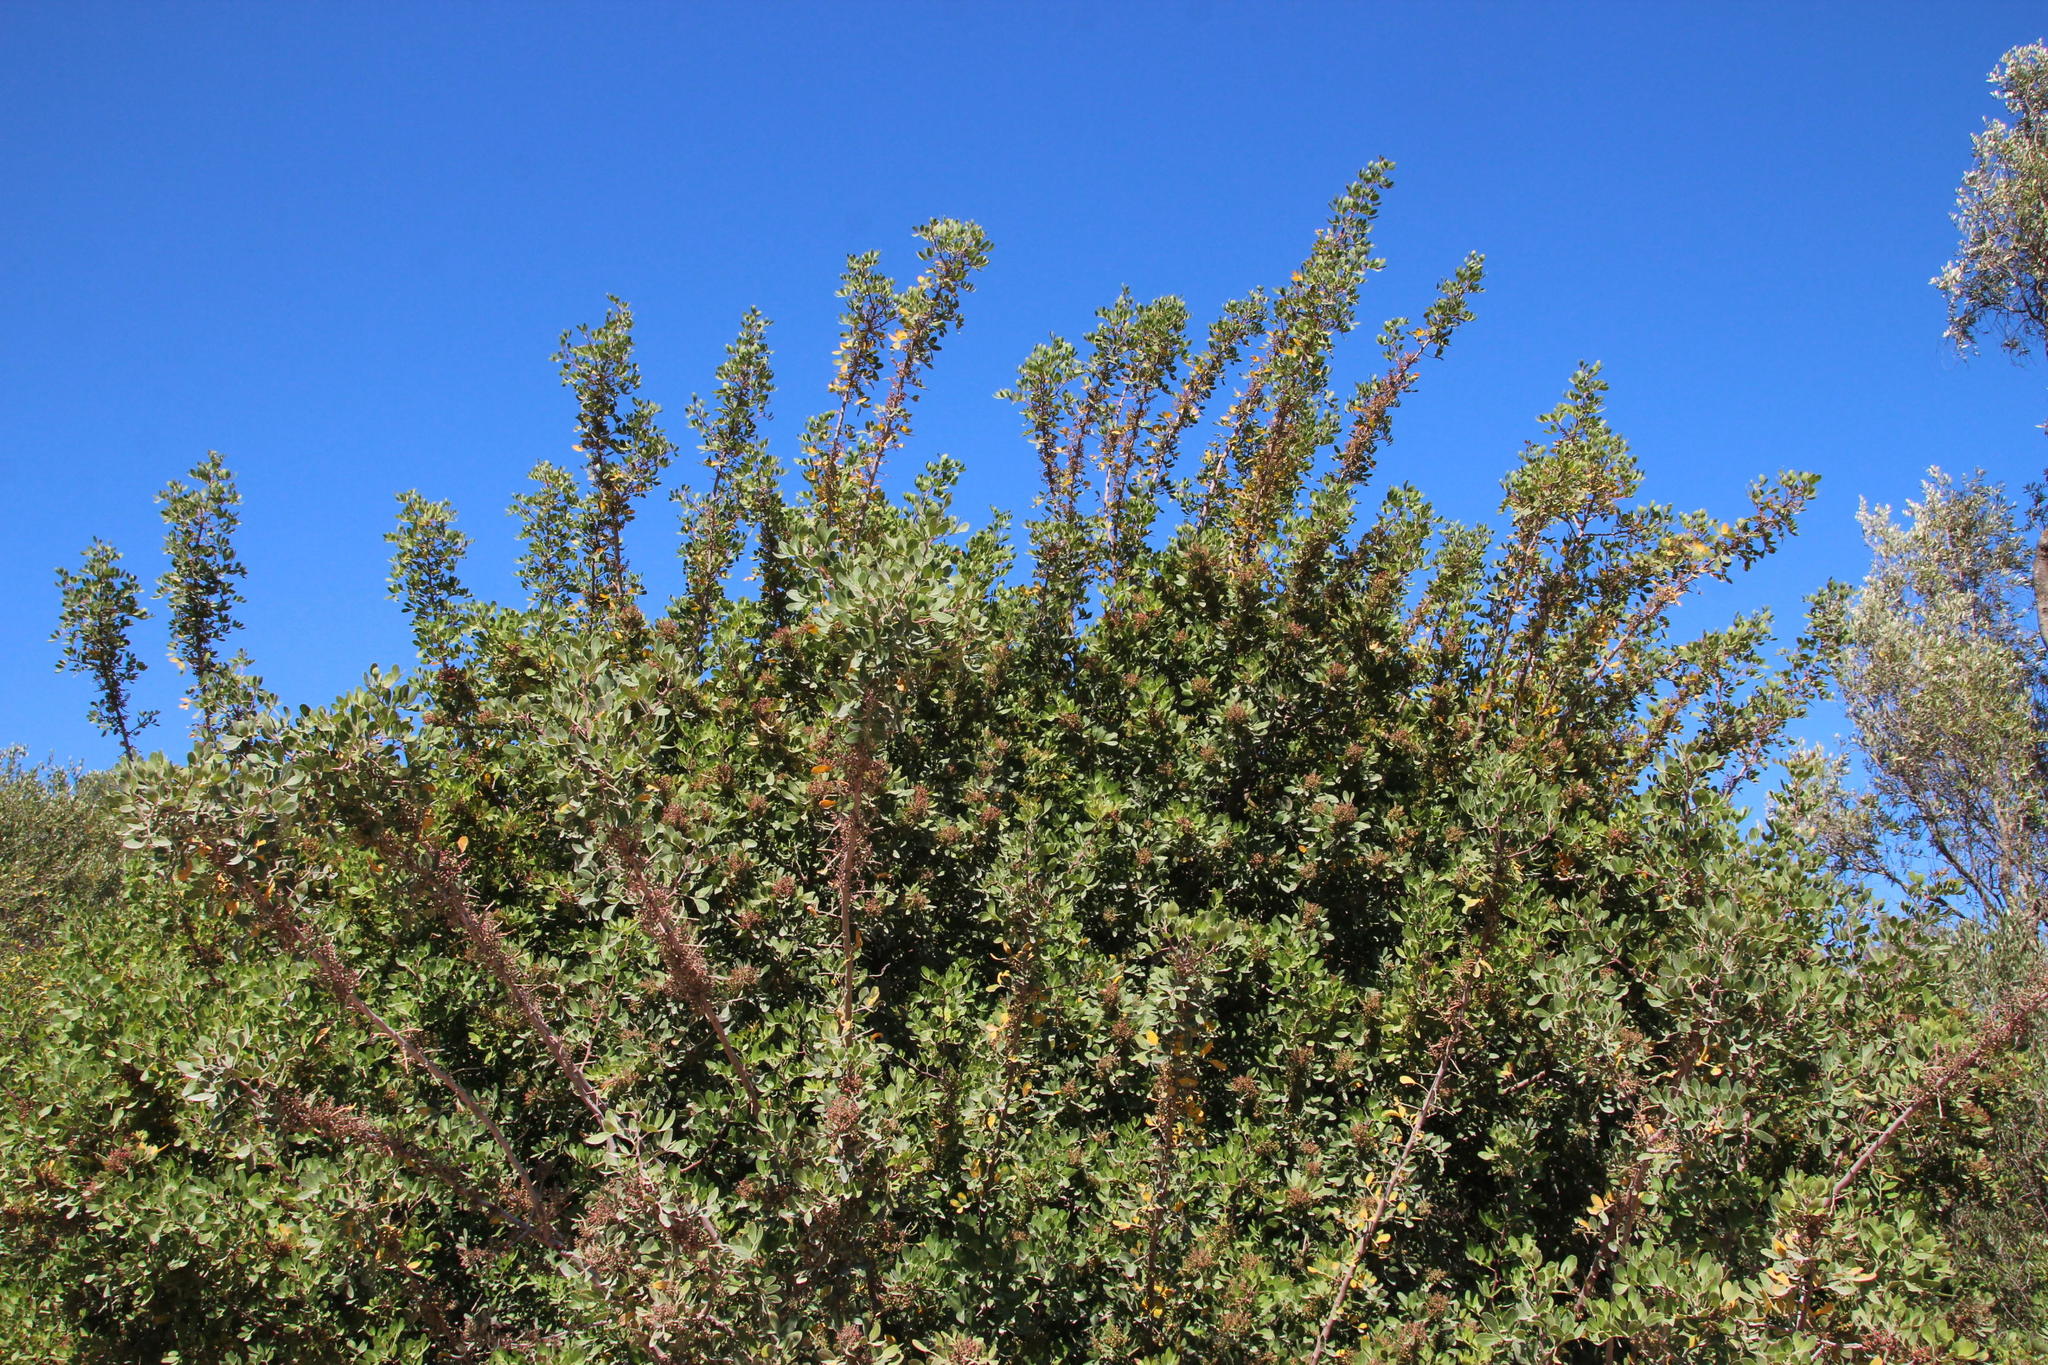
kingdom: Plantae
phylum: Tracheophyta
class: Magnoliopsida
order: Sapindales
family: Anacardiaceae
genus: Pistacia
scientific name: Pistacia lentiscus
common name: Lentisk
